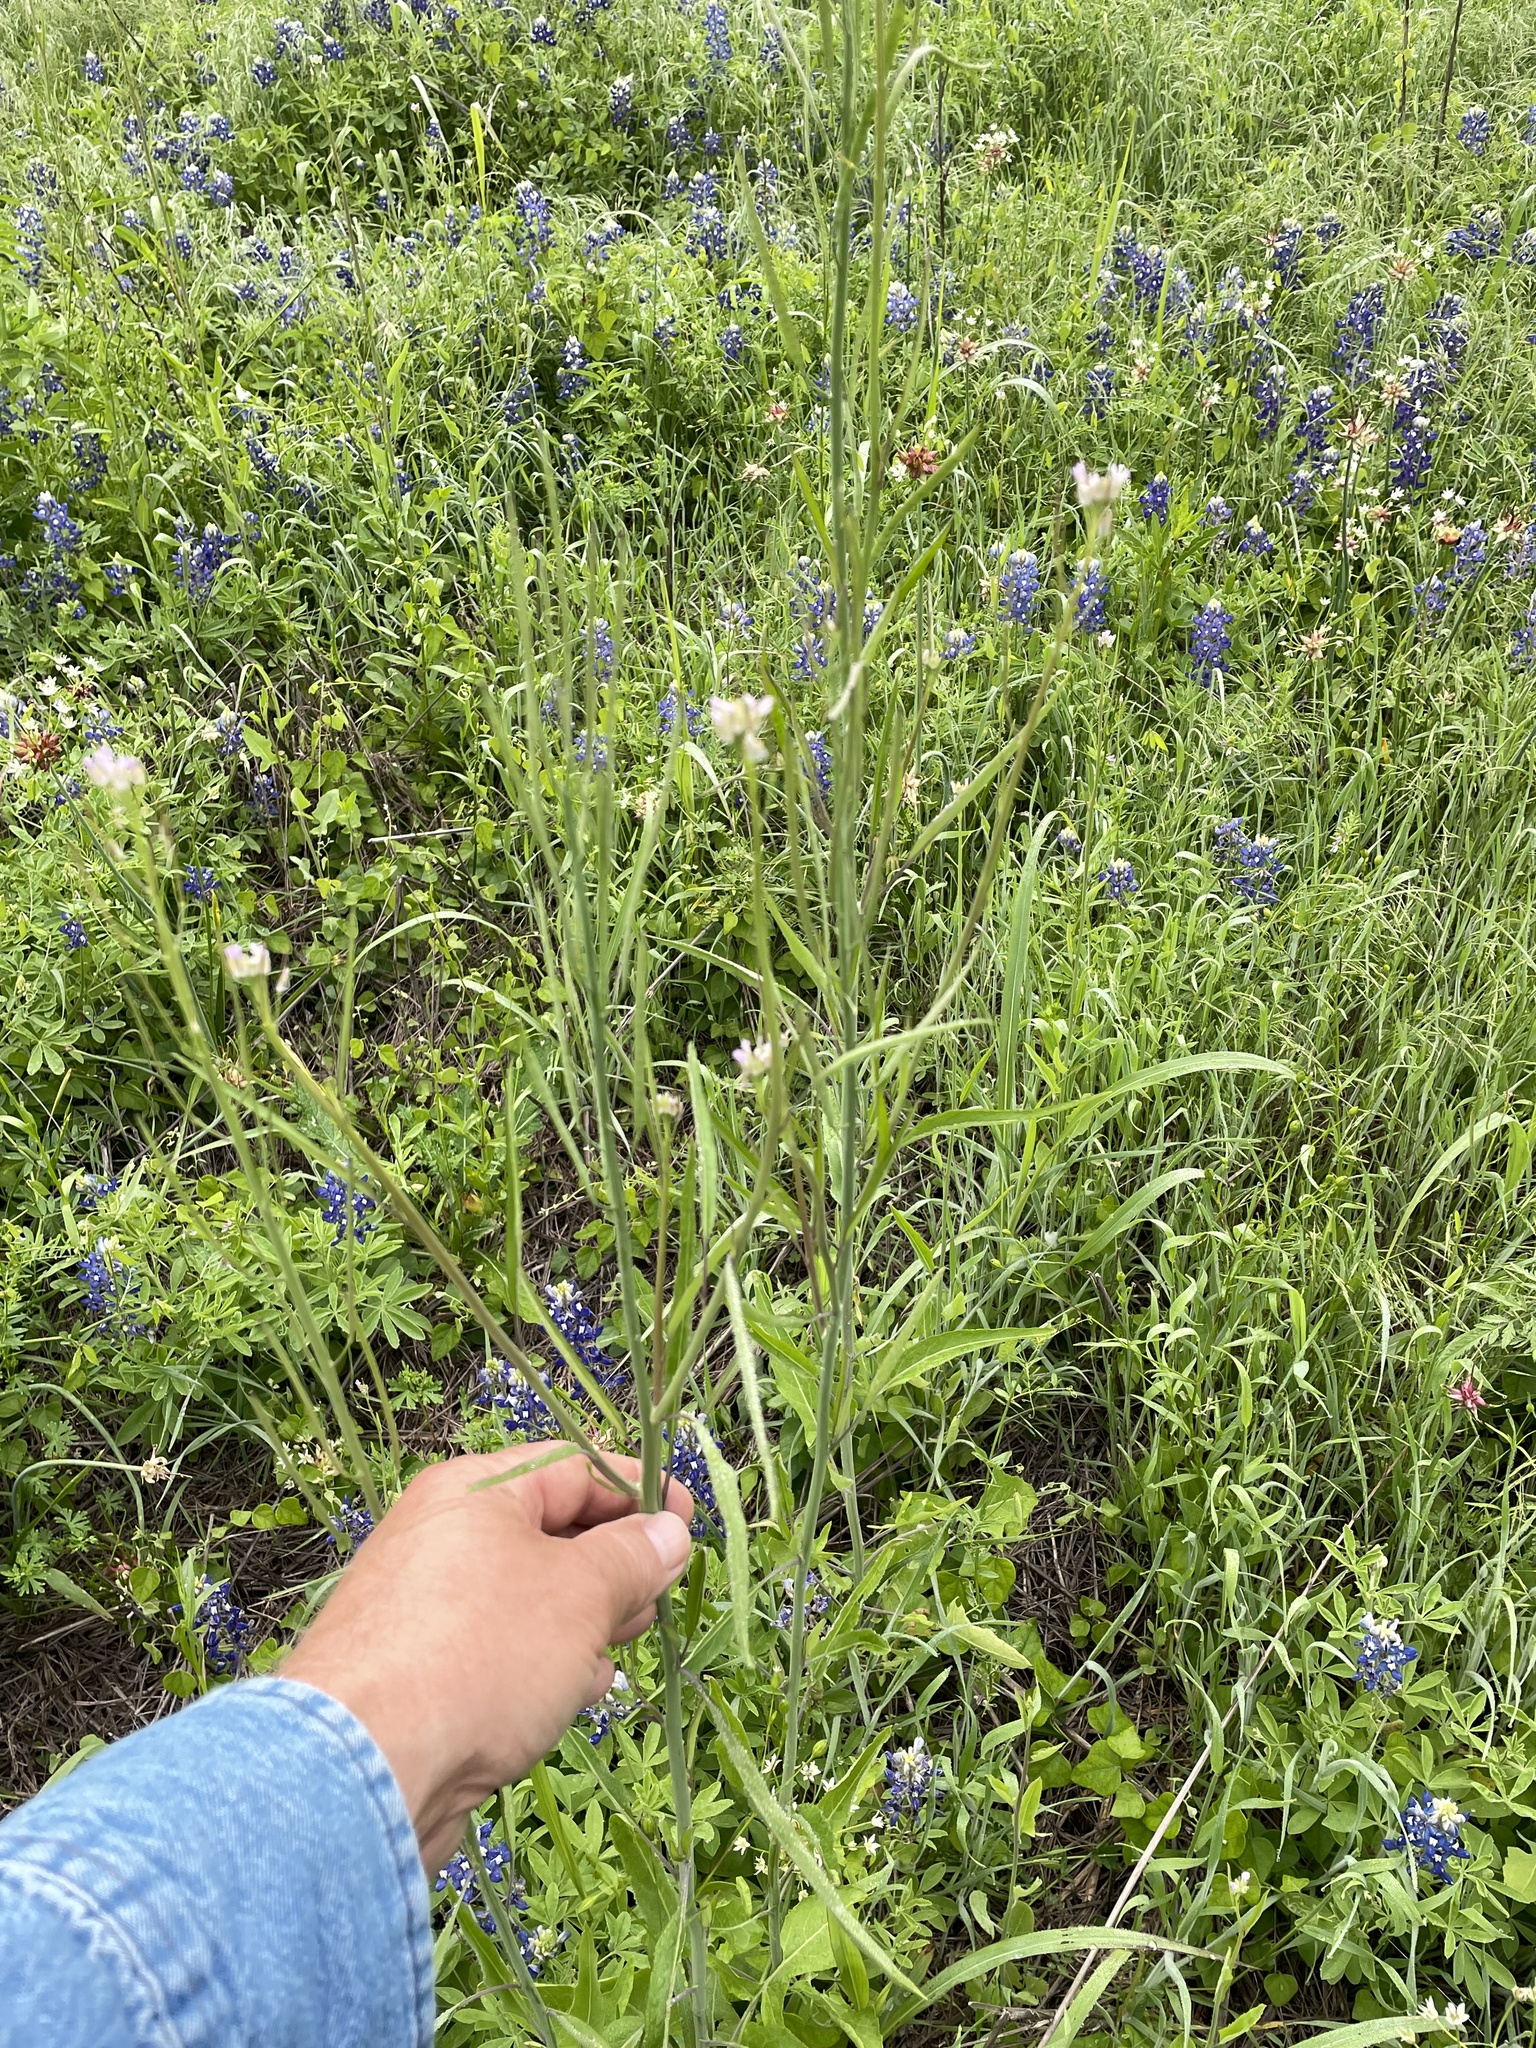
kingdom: Plantae
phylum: Tracheophyta
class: Magnoliopsida
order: Brassicales
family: Brassicaceae
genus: Streptanthus
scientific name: Streptanthus petiolaris
